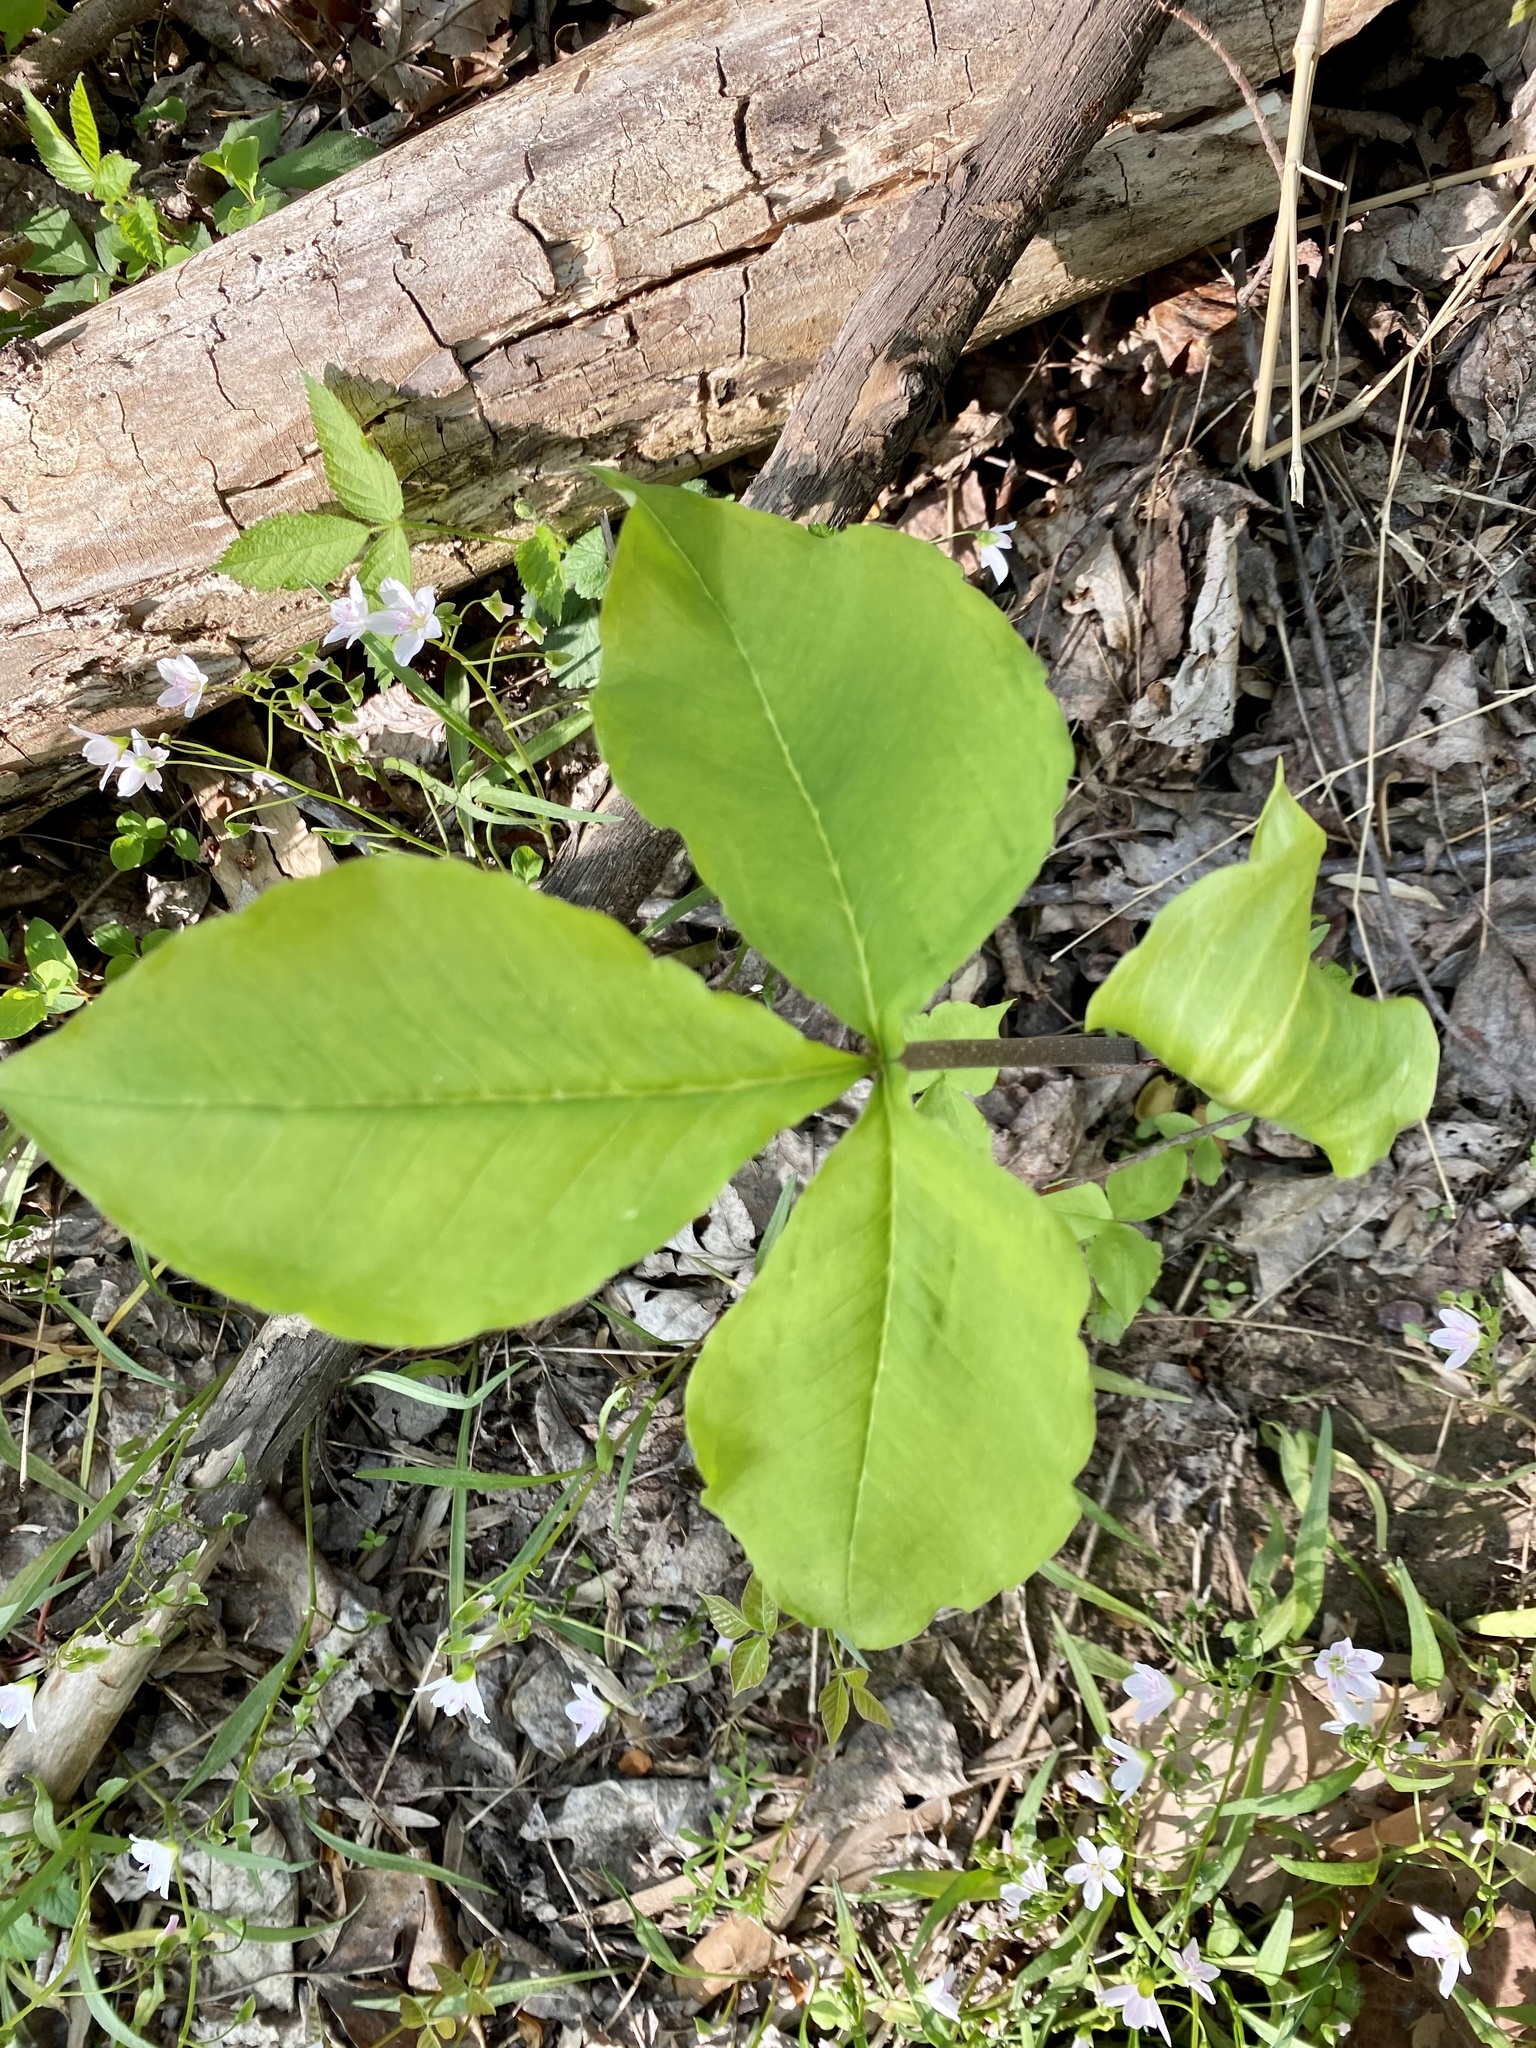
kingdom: Plantae
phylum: Tracheophyta
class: Liliopsida
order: Alismatales
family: Araceae
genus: Arisaema
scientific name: Arisaema triphyllum
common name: Jack-in-the-pulpit
